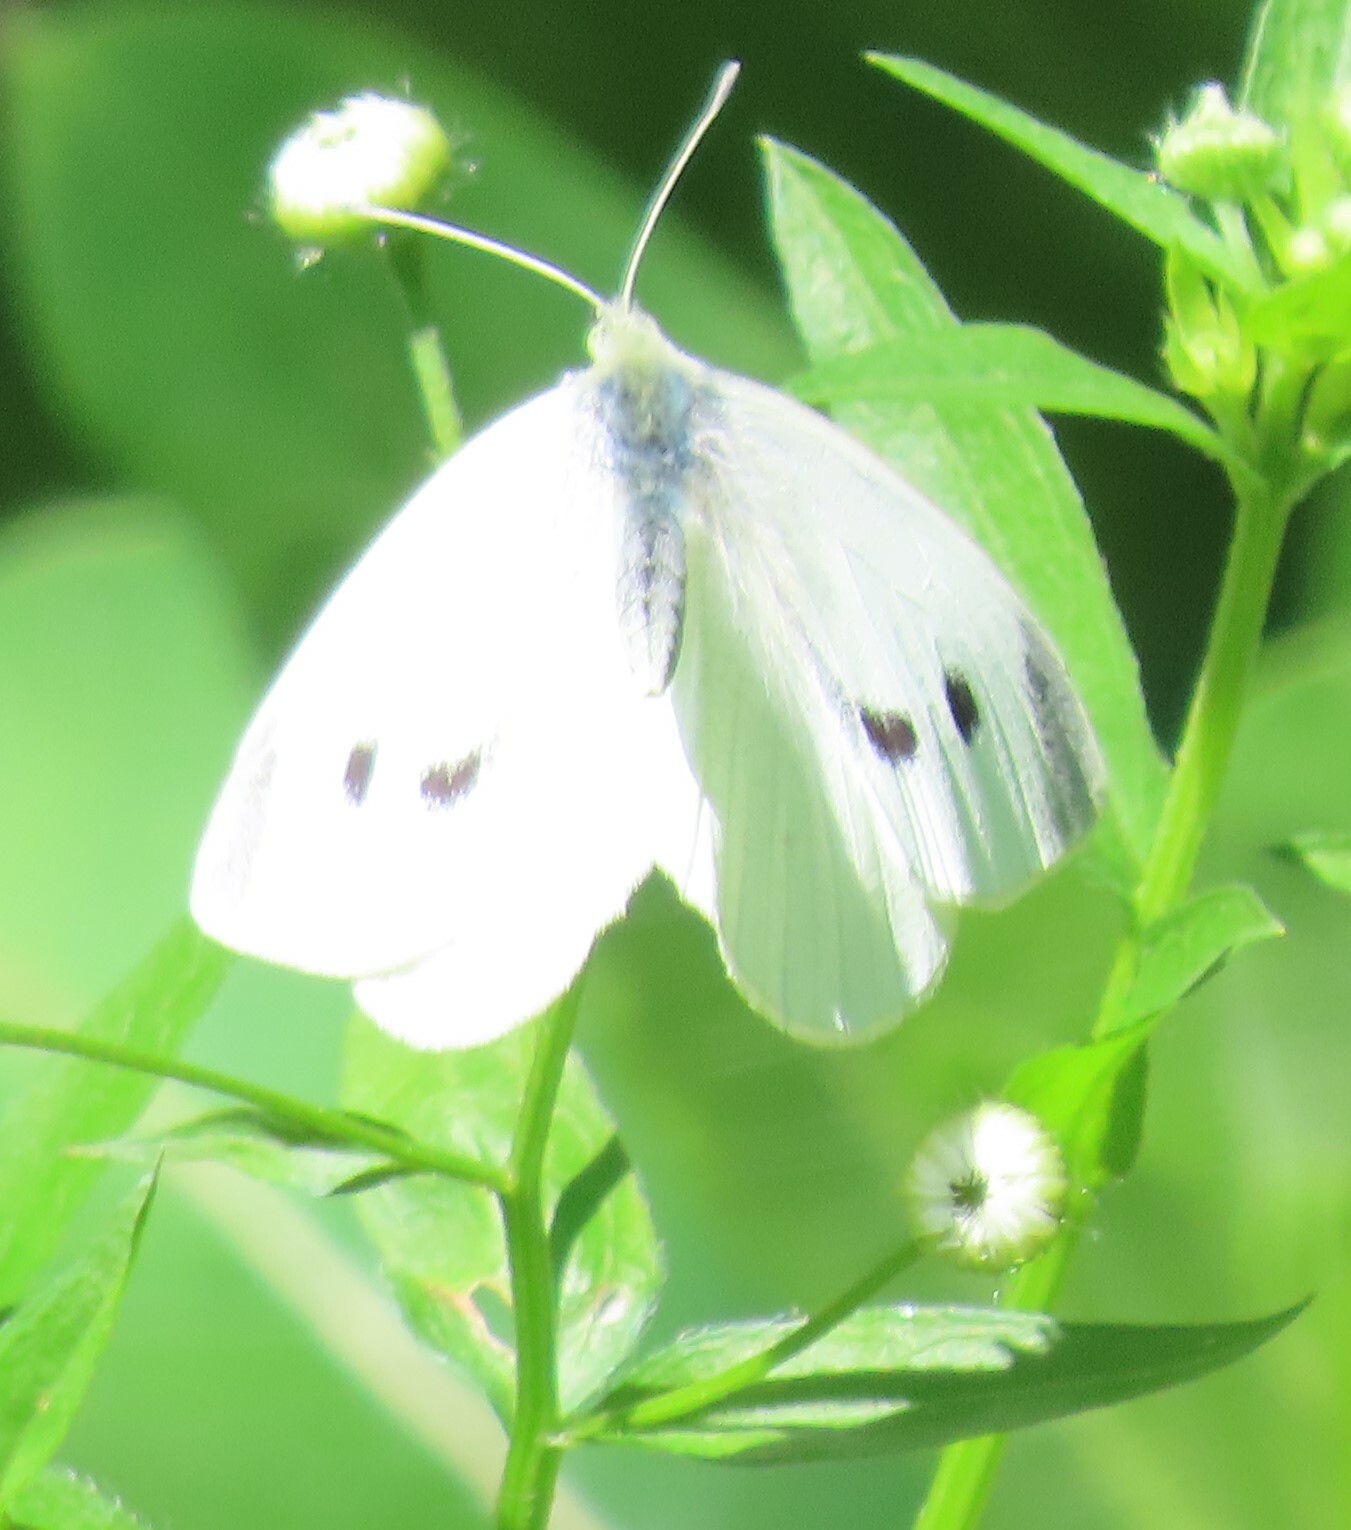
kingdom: Animalia
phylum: Arthropoda
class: Insecta
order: Lepidoptera
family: Pieridae
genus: Pieris
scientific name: Pieris rapae
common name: Small white
